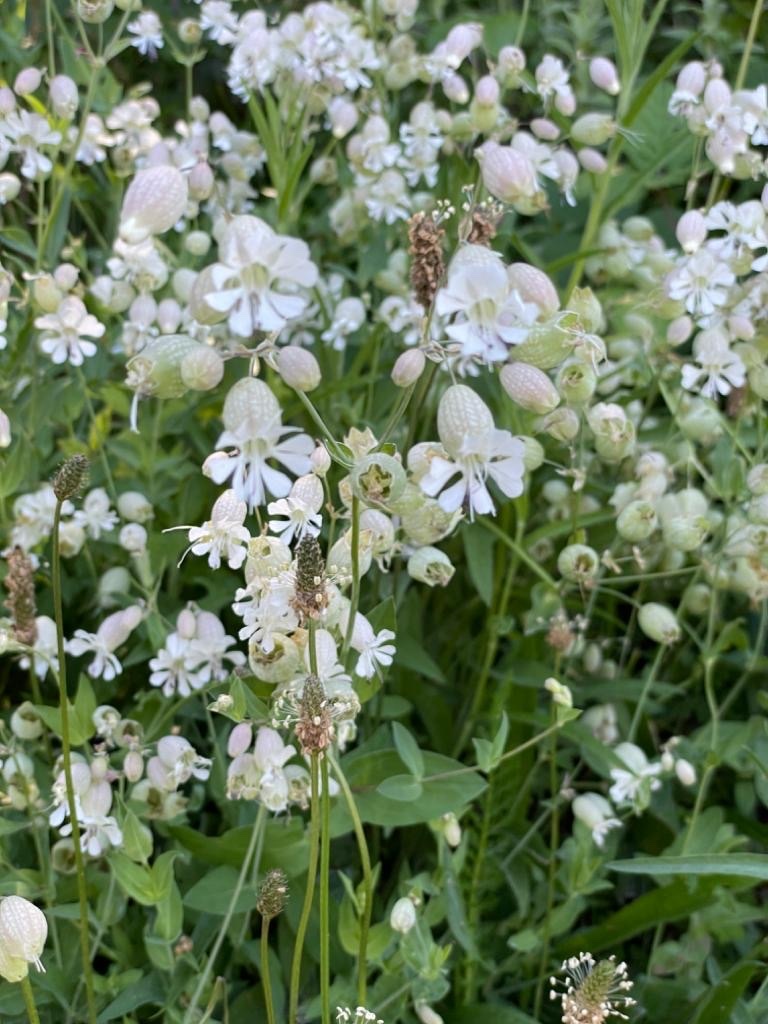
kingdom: Plantae
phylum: Tracheophyta
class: Magnoliopsida
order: Caryophyllales
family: Caryophyllaceae
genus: Silene
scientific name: Silene vulgaris
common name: Bladder campion
